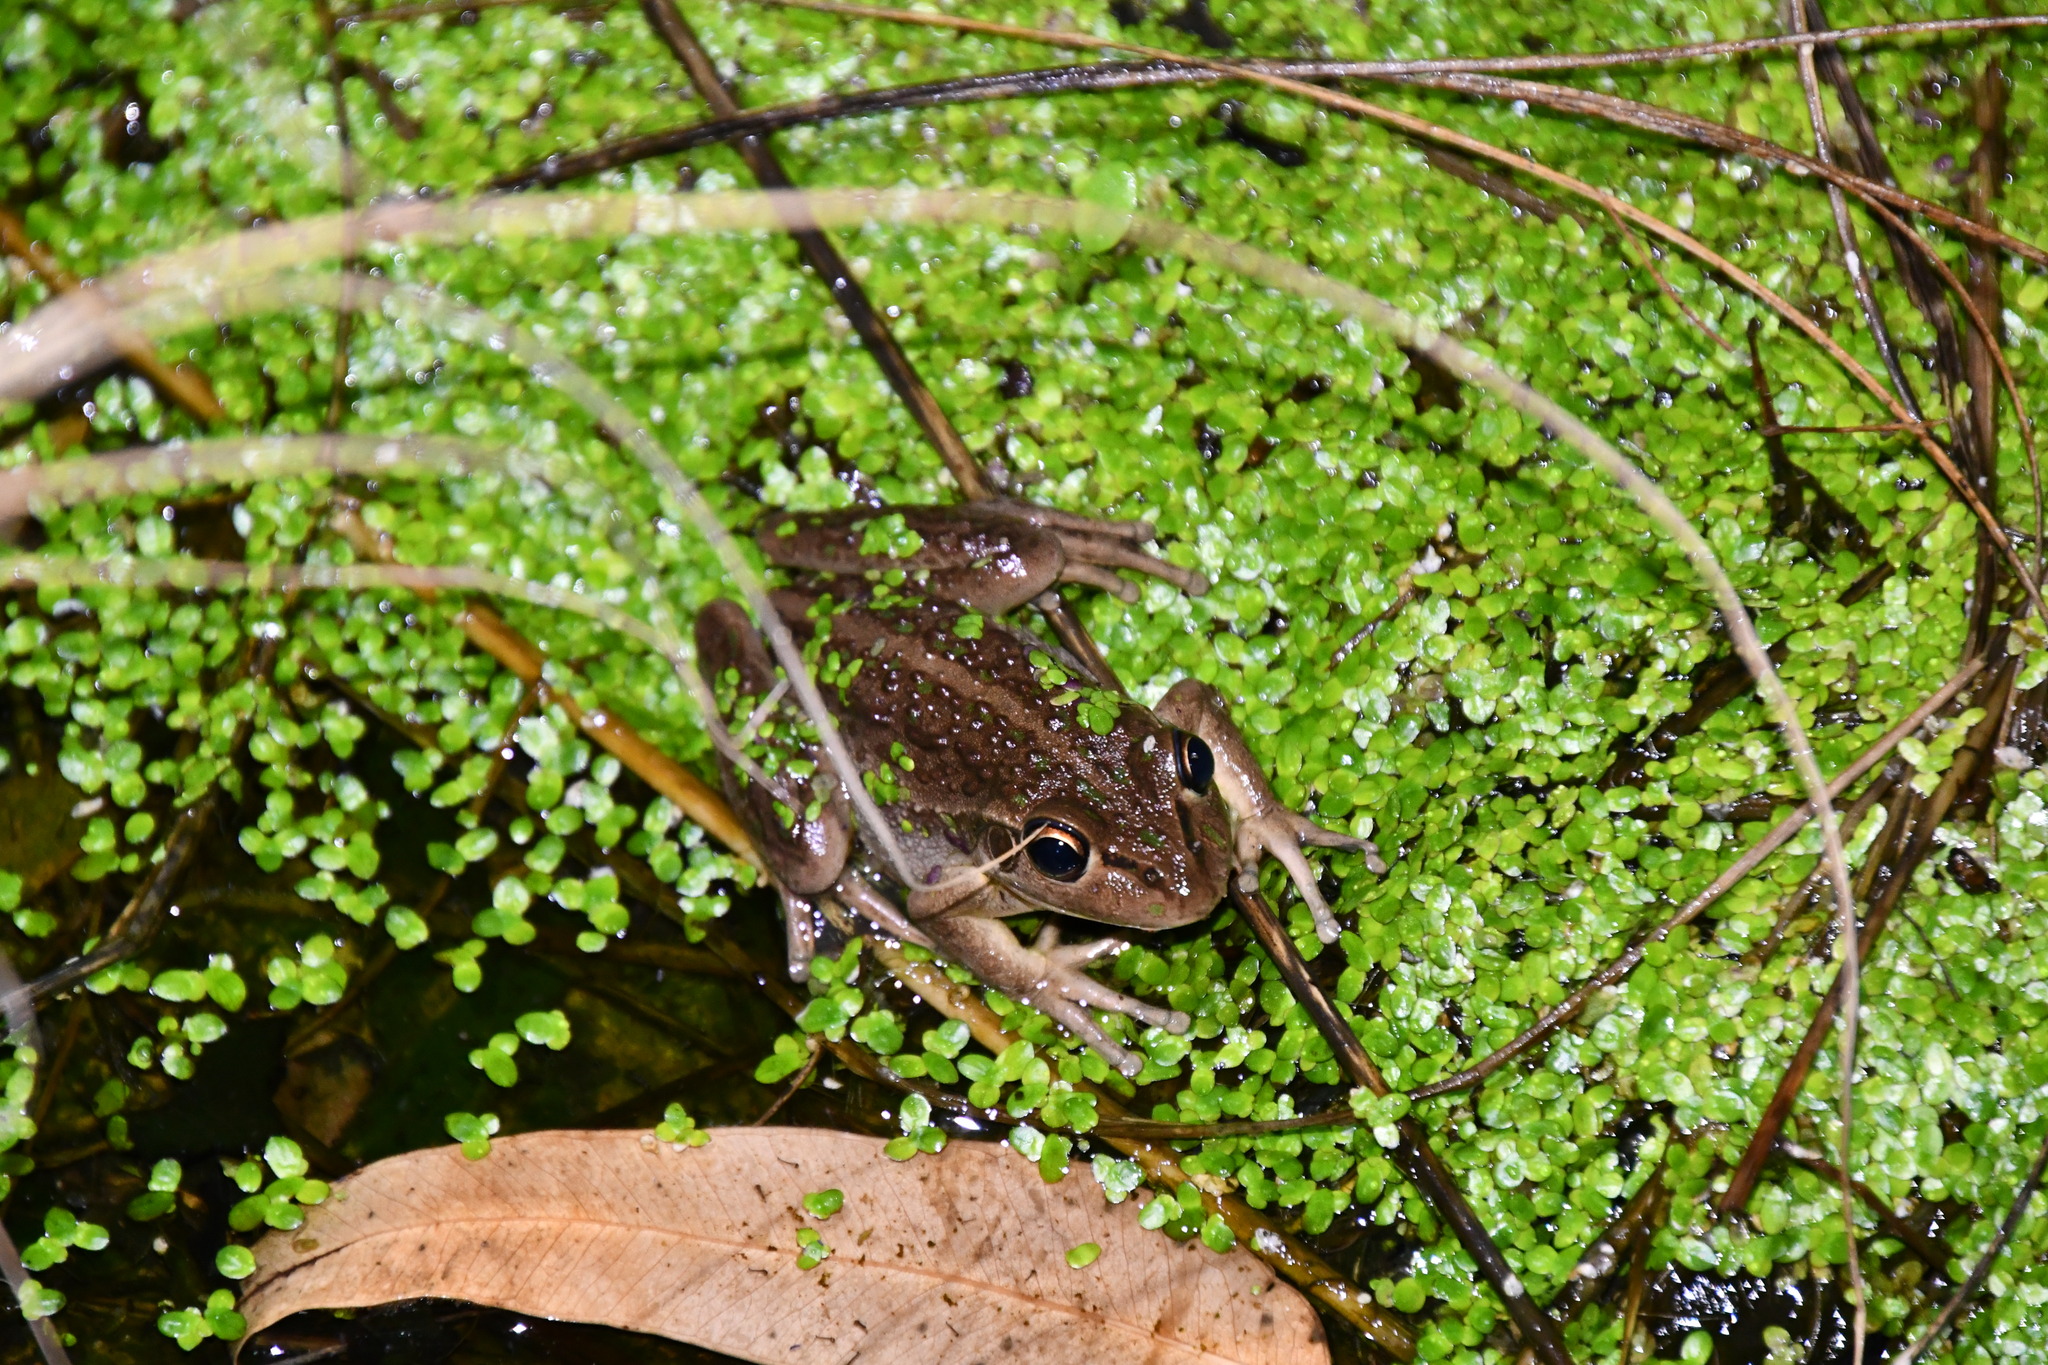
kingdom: Animalia
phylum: Chordata
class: Amphibia
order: Anura
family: Pelodryadidae
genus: Ranoidea
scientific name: Ranoidea moorei
